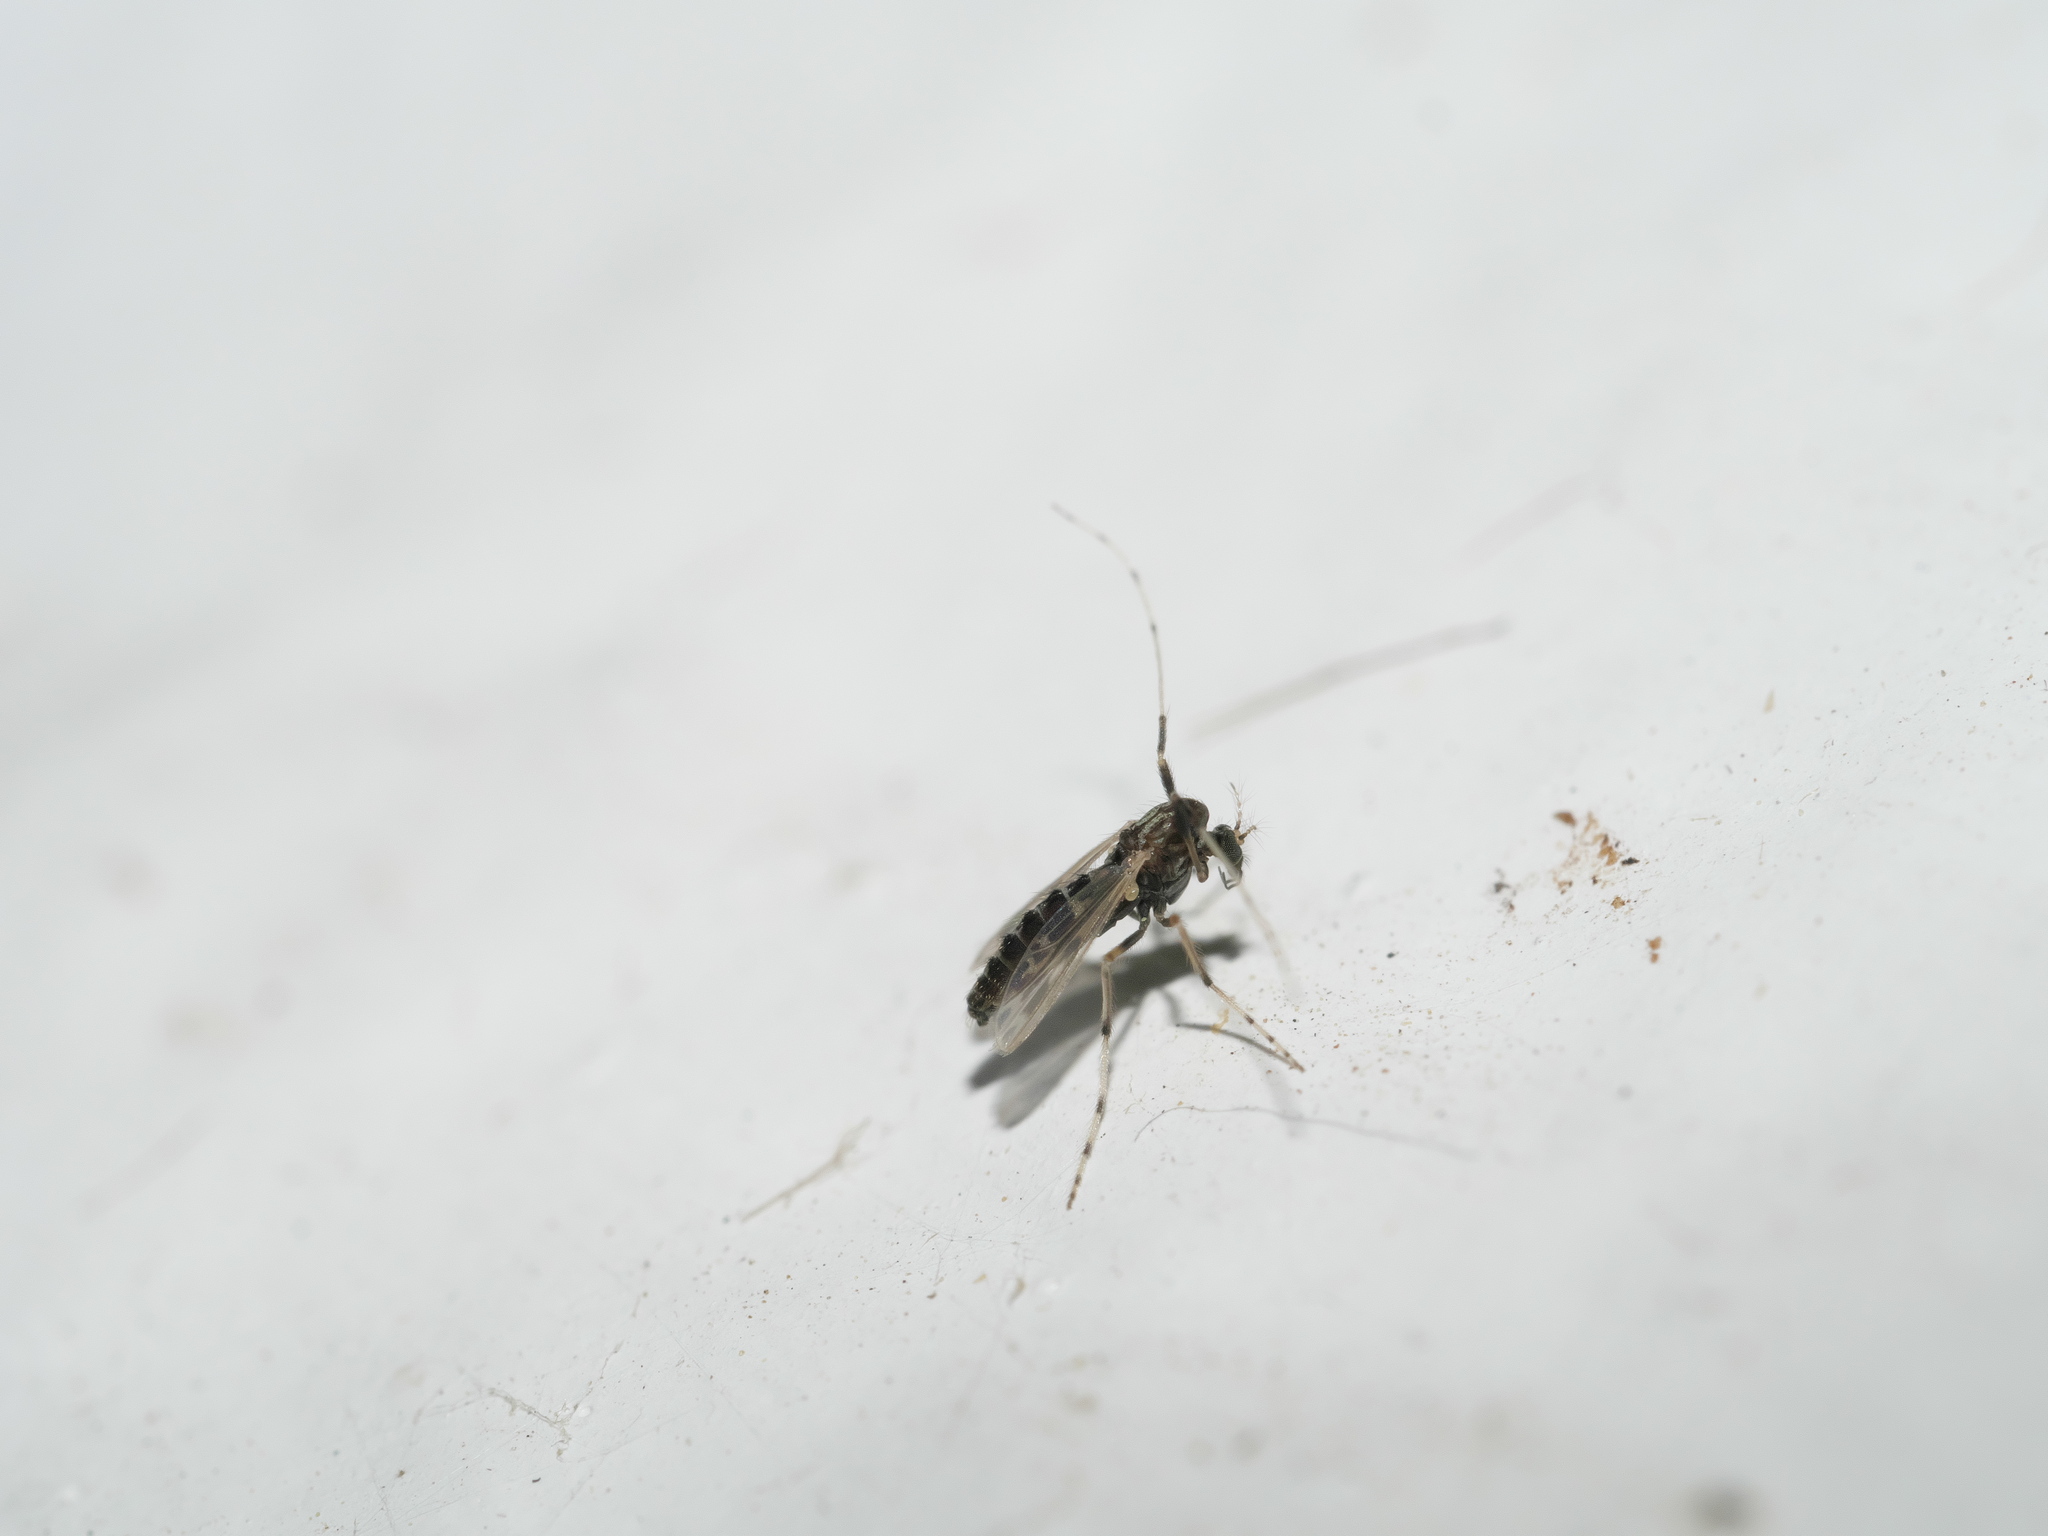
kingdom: Animalia
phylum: Arthropoda
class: Insecta
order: Diptera
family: Chironomidae
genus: Zavreliella
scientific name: Zavreliella marmorata
